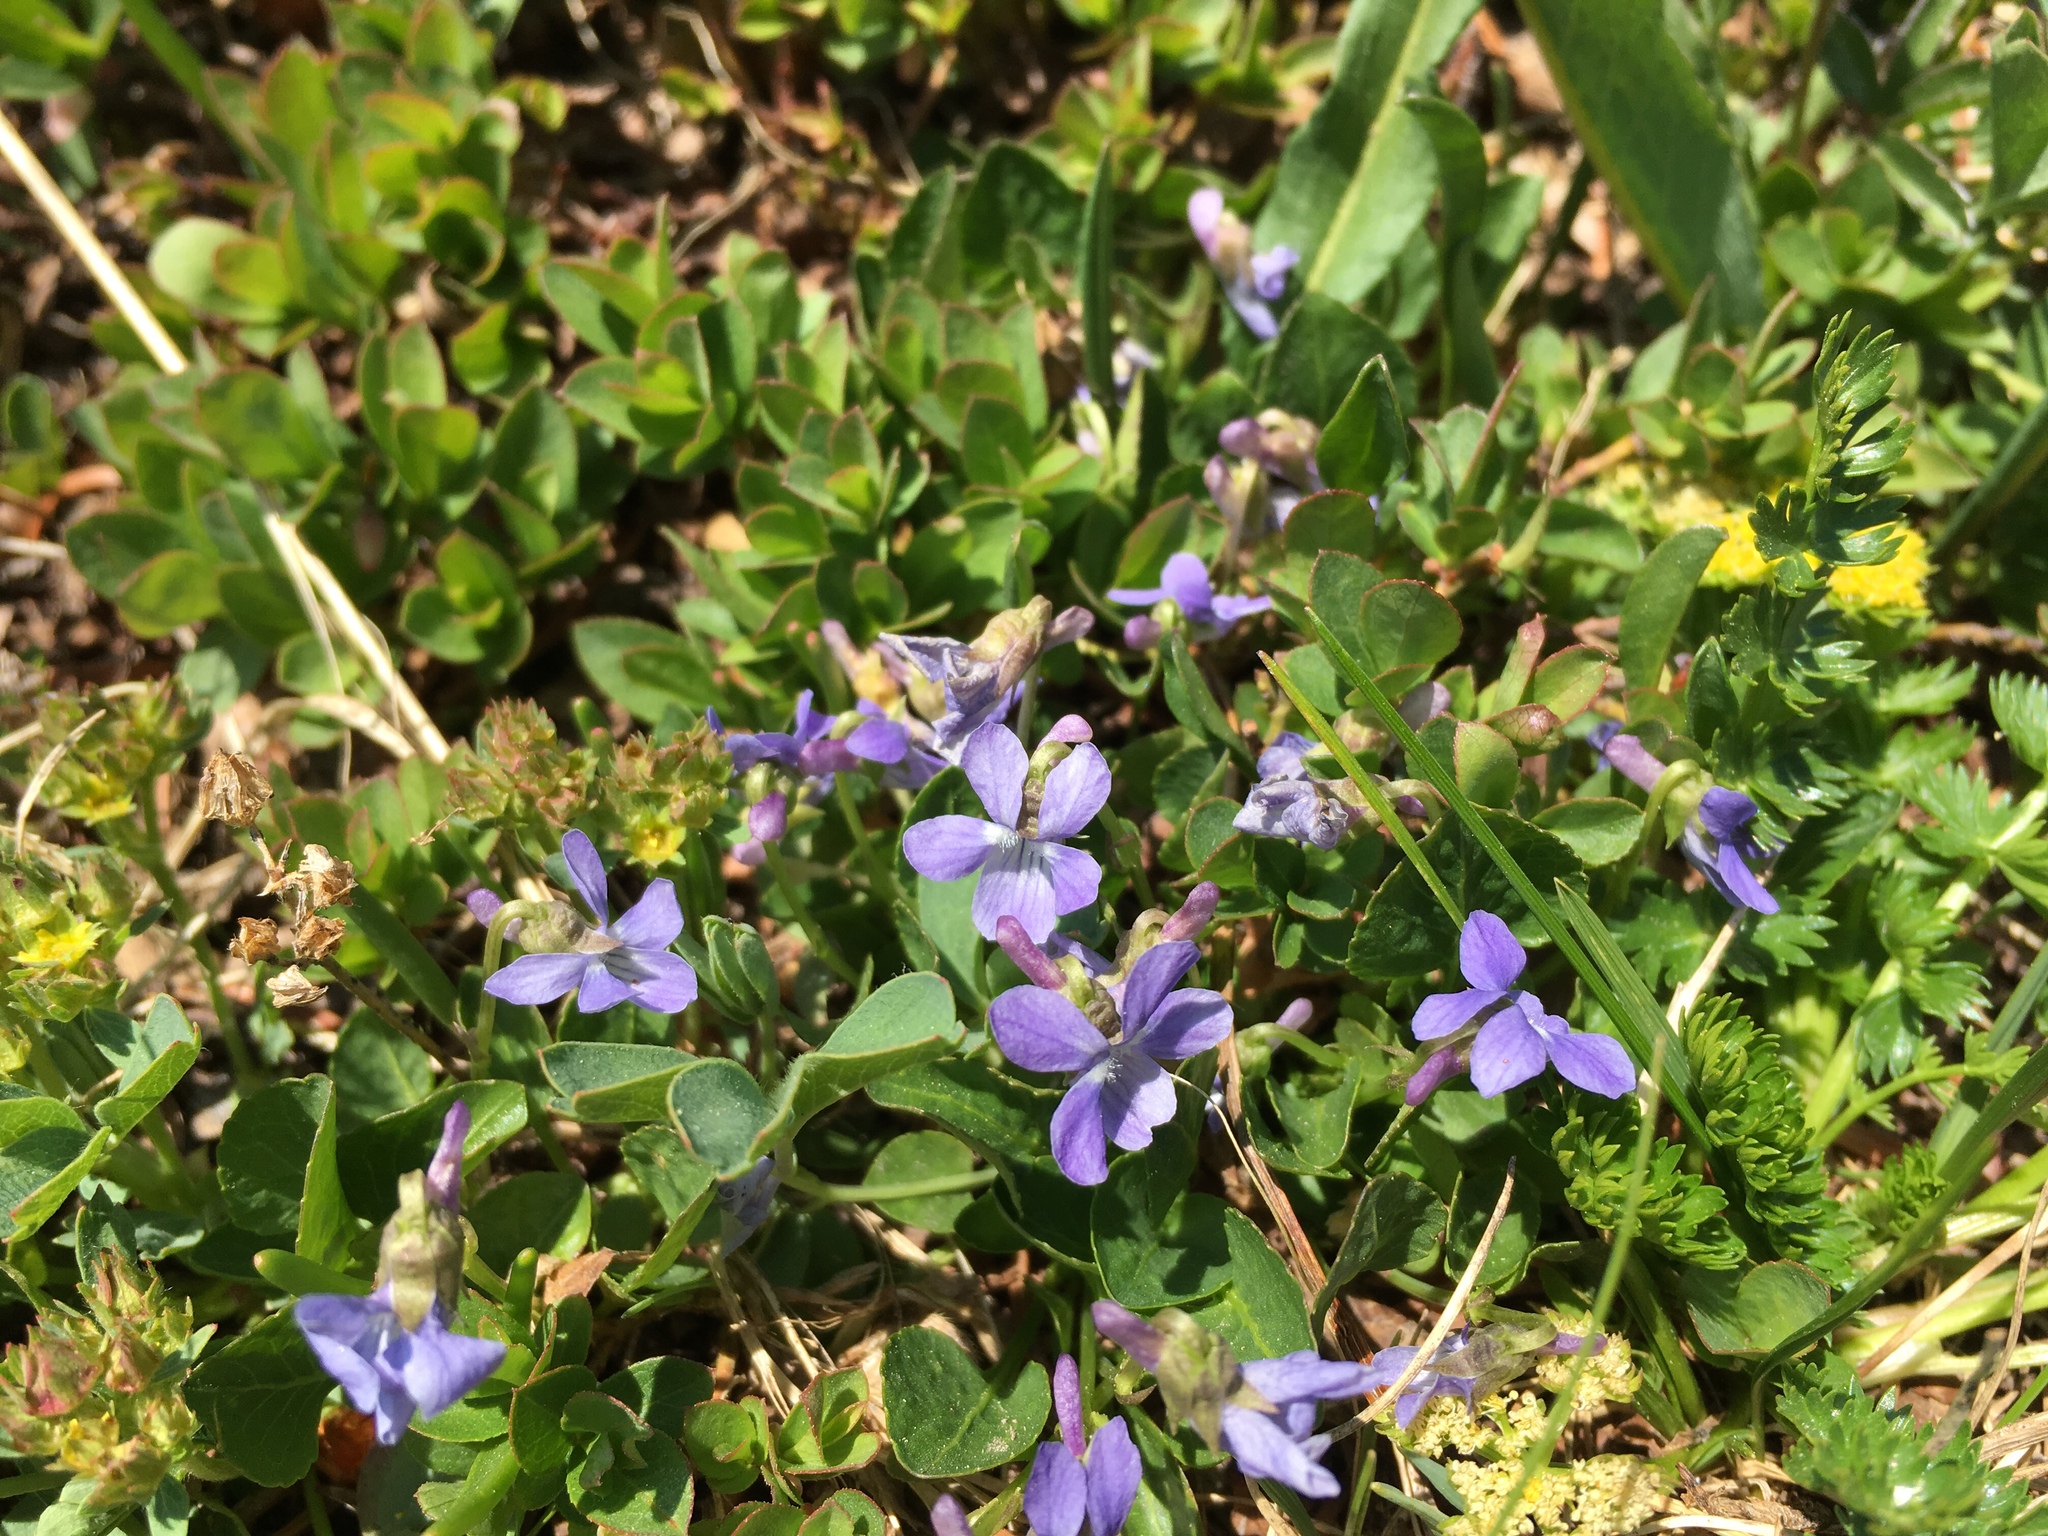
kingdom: Plantae
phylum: Tracheophyta
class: Magnoliopsida
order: Malpighiales
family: Violaceae
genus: Viola
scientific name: Viola adunca
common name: Sand violet
